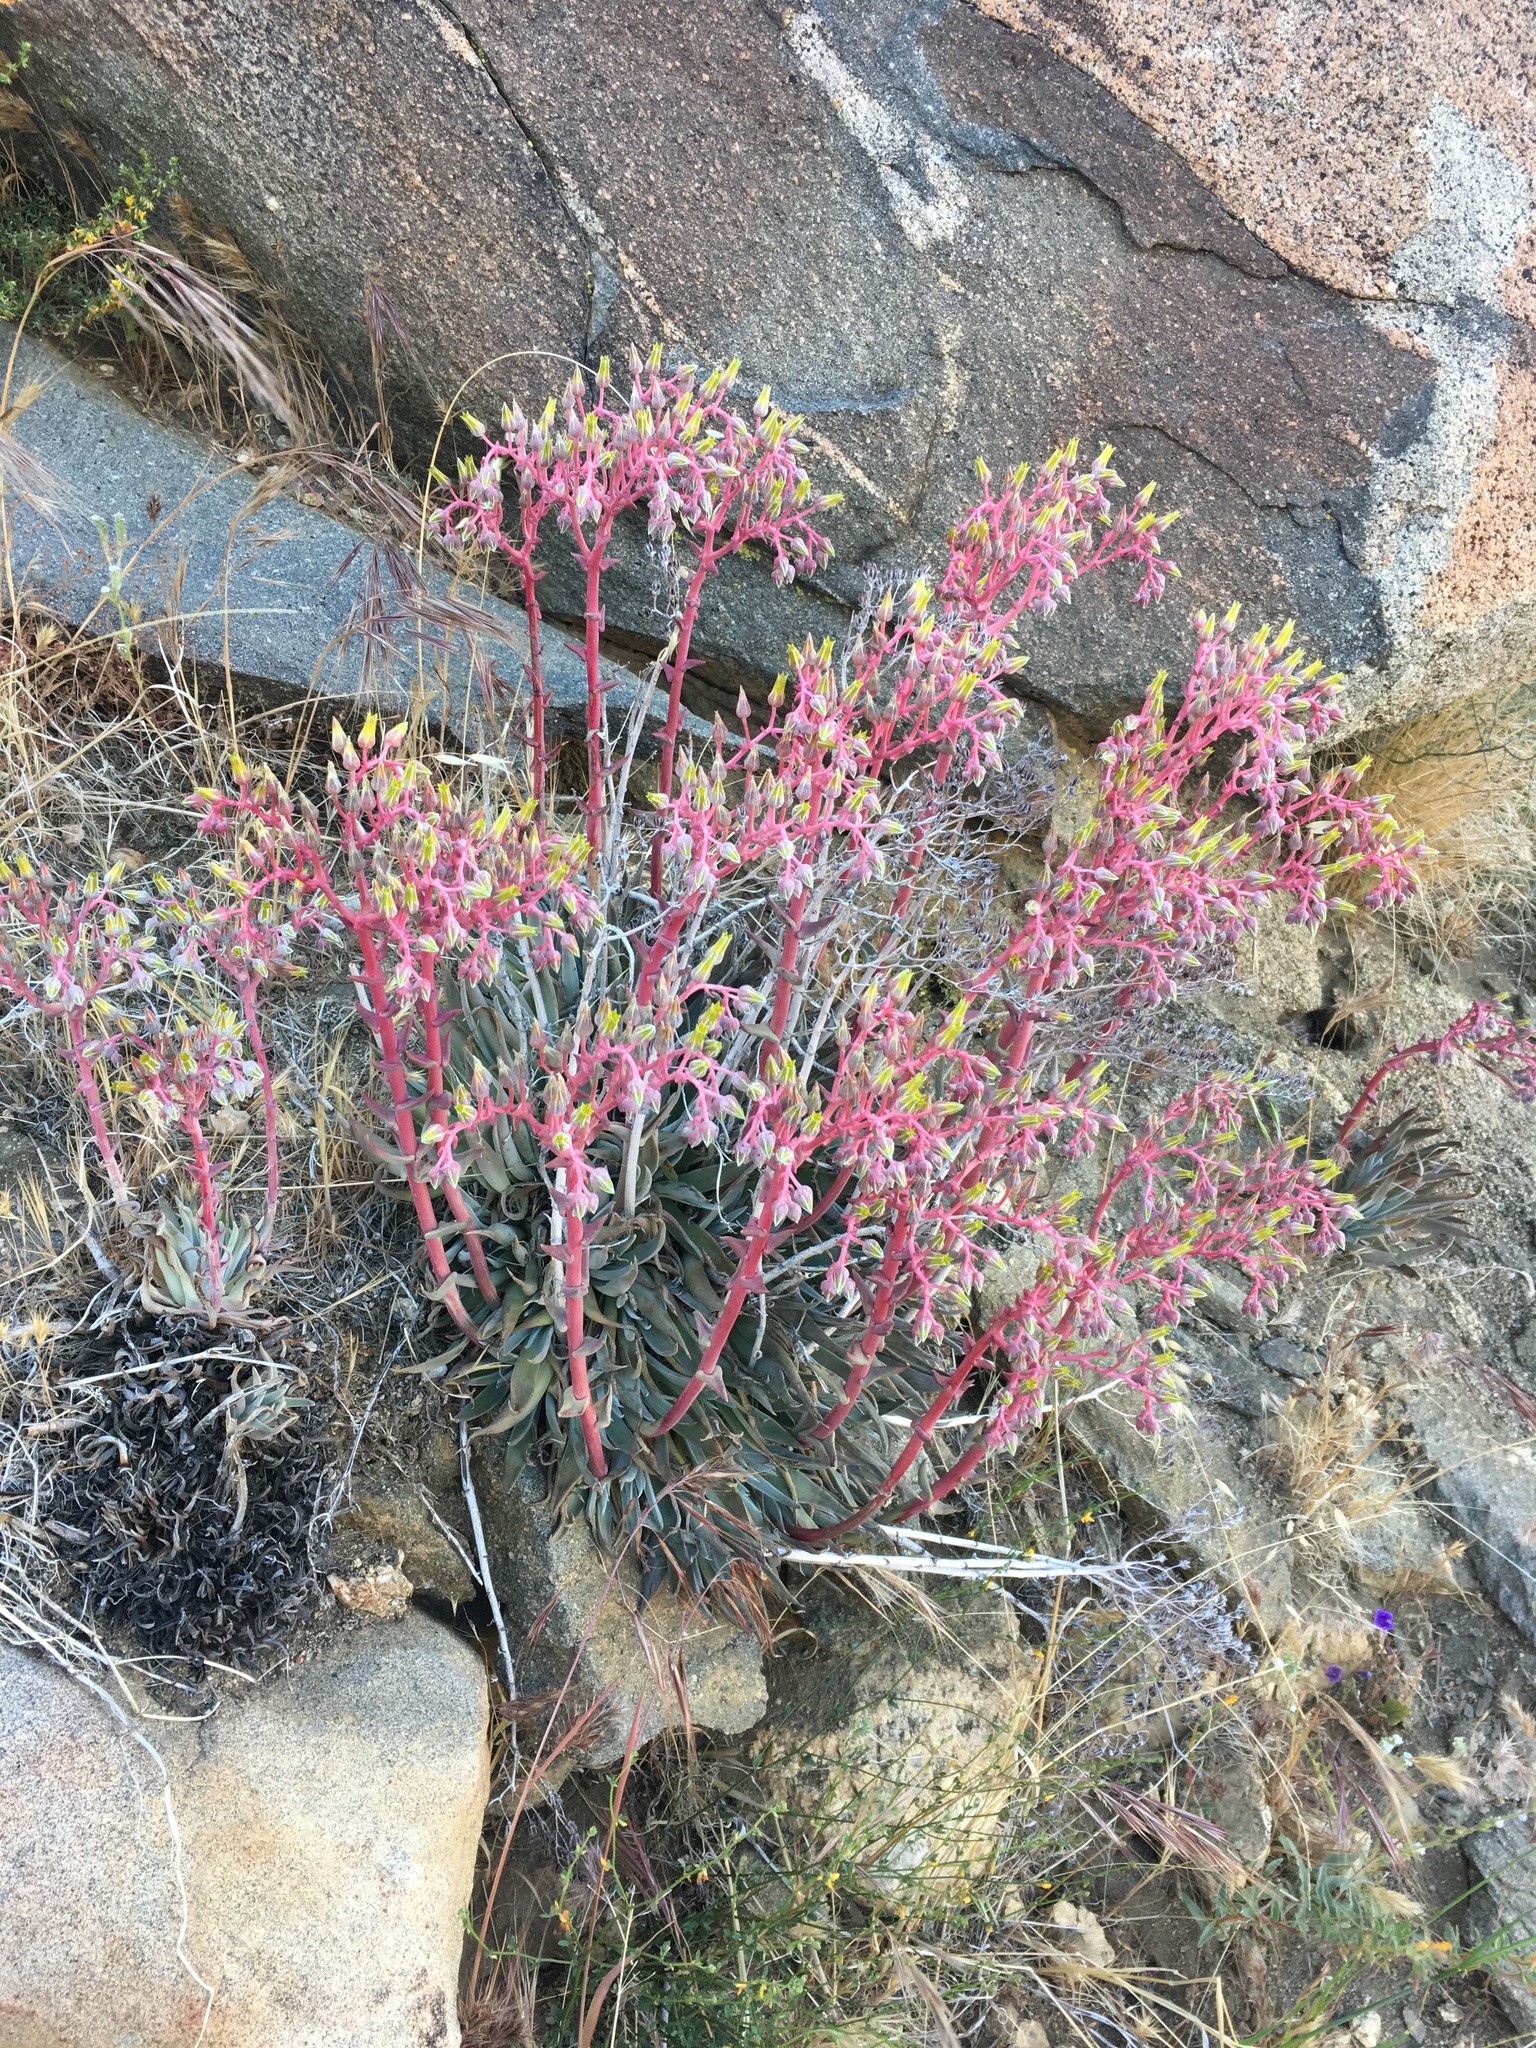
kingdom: Plantae
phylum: Tracheophyta
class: Magnoliopsida
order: Saxifragales
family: Crassulaceae
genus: Dudleya
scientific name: Dudleya saxosa
